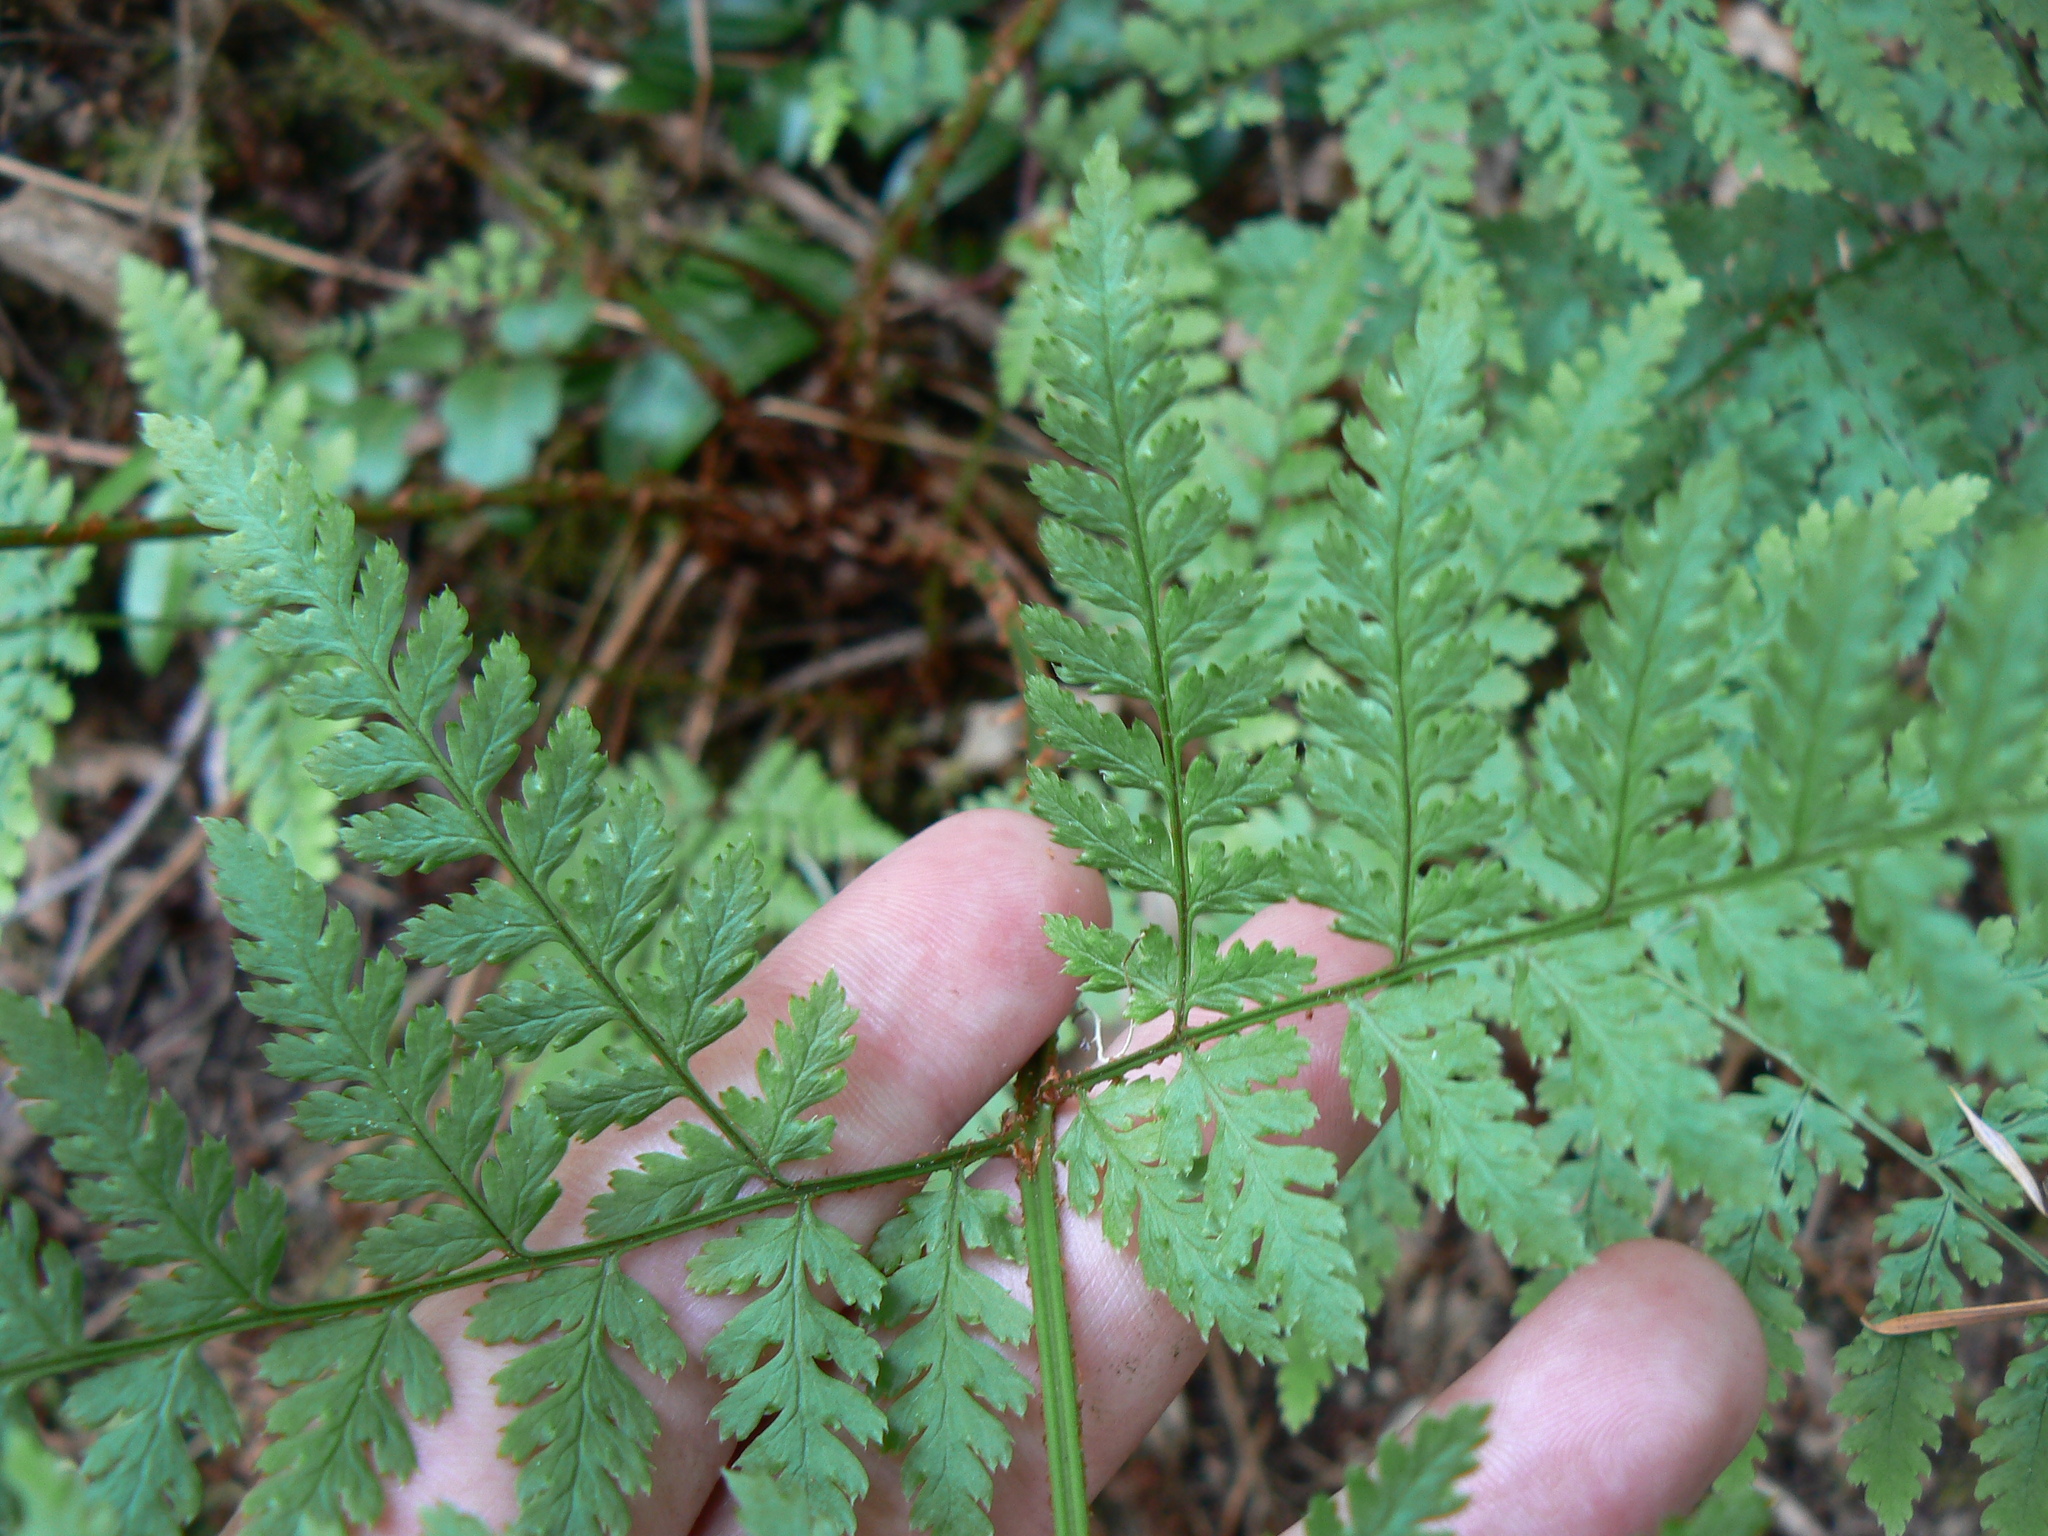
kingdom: Plantae
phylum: Tracheophyta
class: Polypodiopsida
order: Polypodiales
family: Dryopteridaceae
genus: Dryopteris
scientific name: Dryopteris expansa
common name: Northern buckler fern
